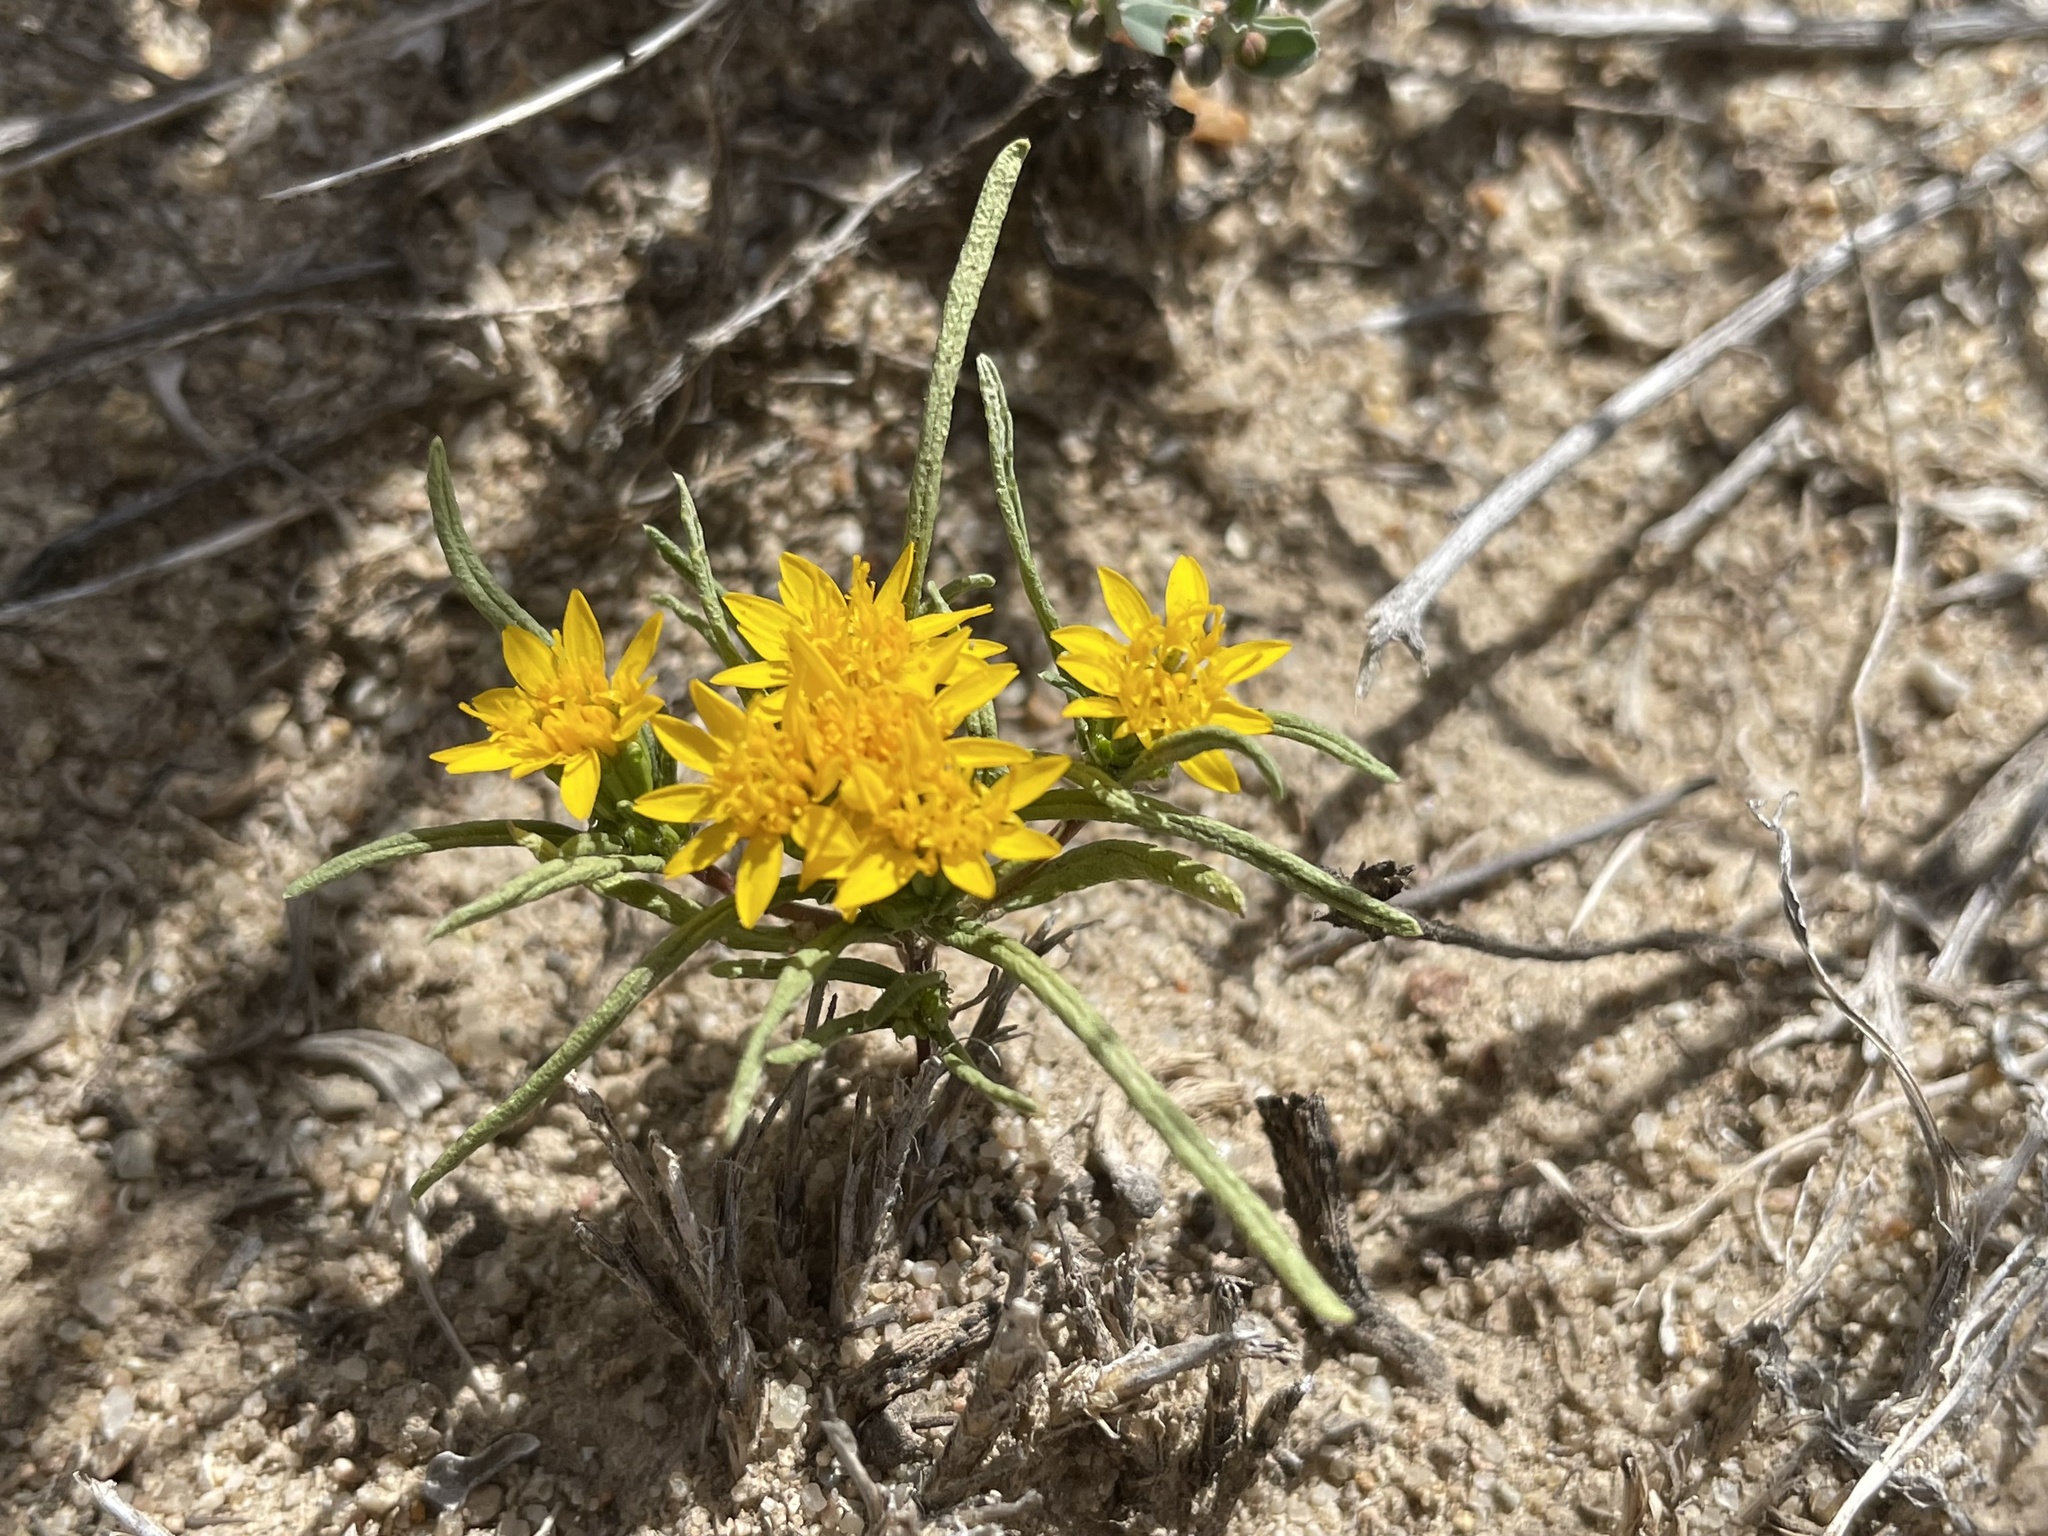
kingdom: Plantae
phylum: Tracheophyta
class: Magnoliopsida
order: Asterales
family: Asteraceae
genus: Pectis
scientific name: Pectis angustifolia
